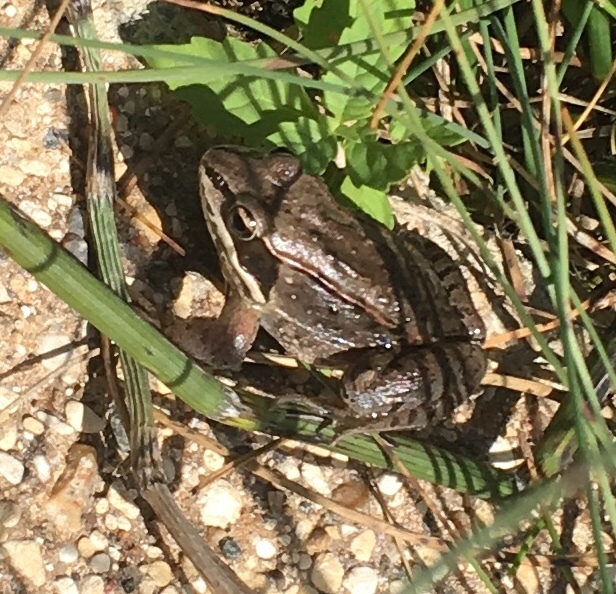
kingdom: Animalia
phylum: Chordata
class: Amphibia
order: Anura
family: Ranidae
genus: Lithobates
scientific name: Lithobates sylvaticus
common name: Wood frog
